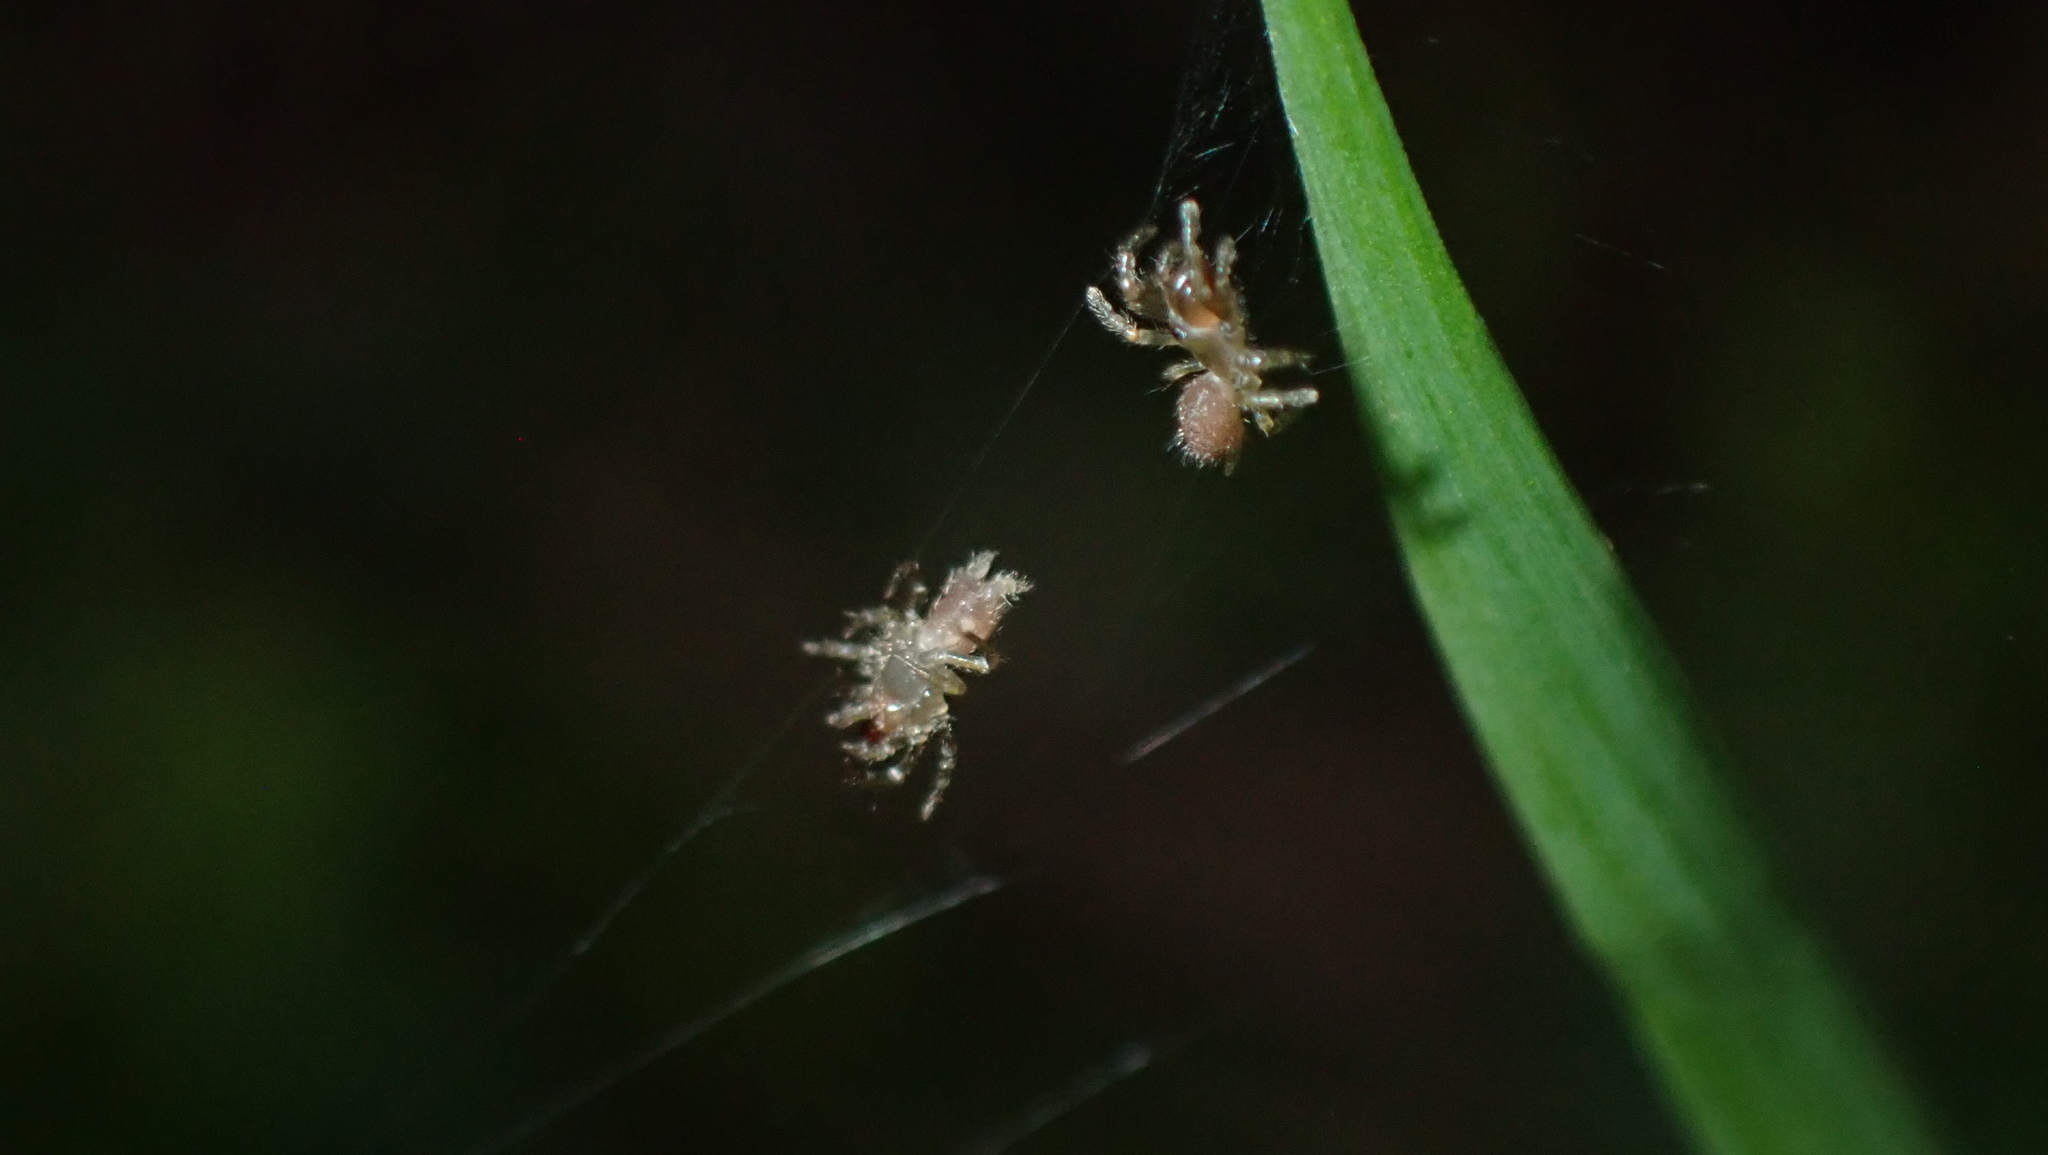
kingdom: Animalia
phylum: Arthropoda
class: Arachnida
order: Araneae
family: Atypidae
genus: Atypus
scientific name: Atypus affinis
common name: Purse web spider
